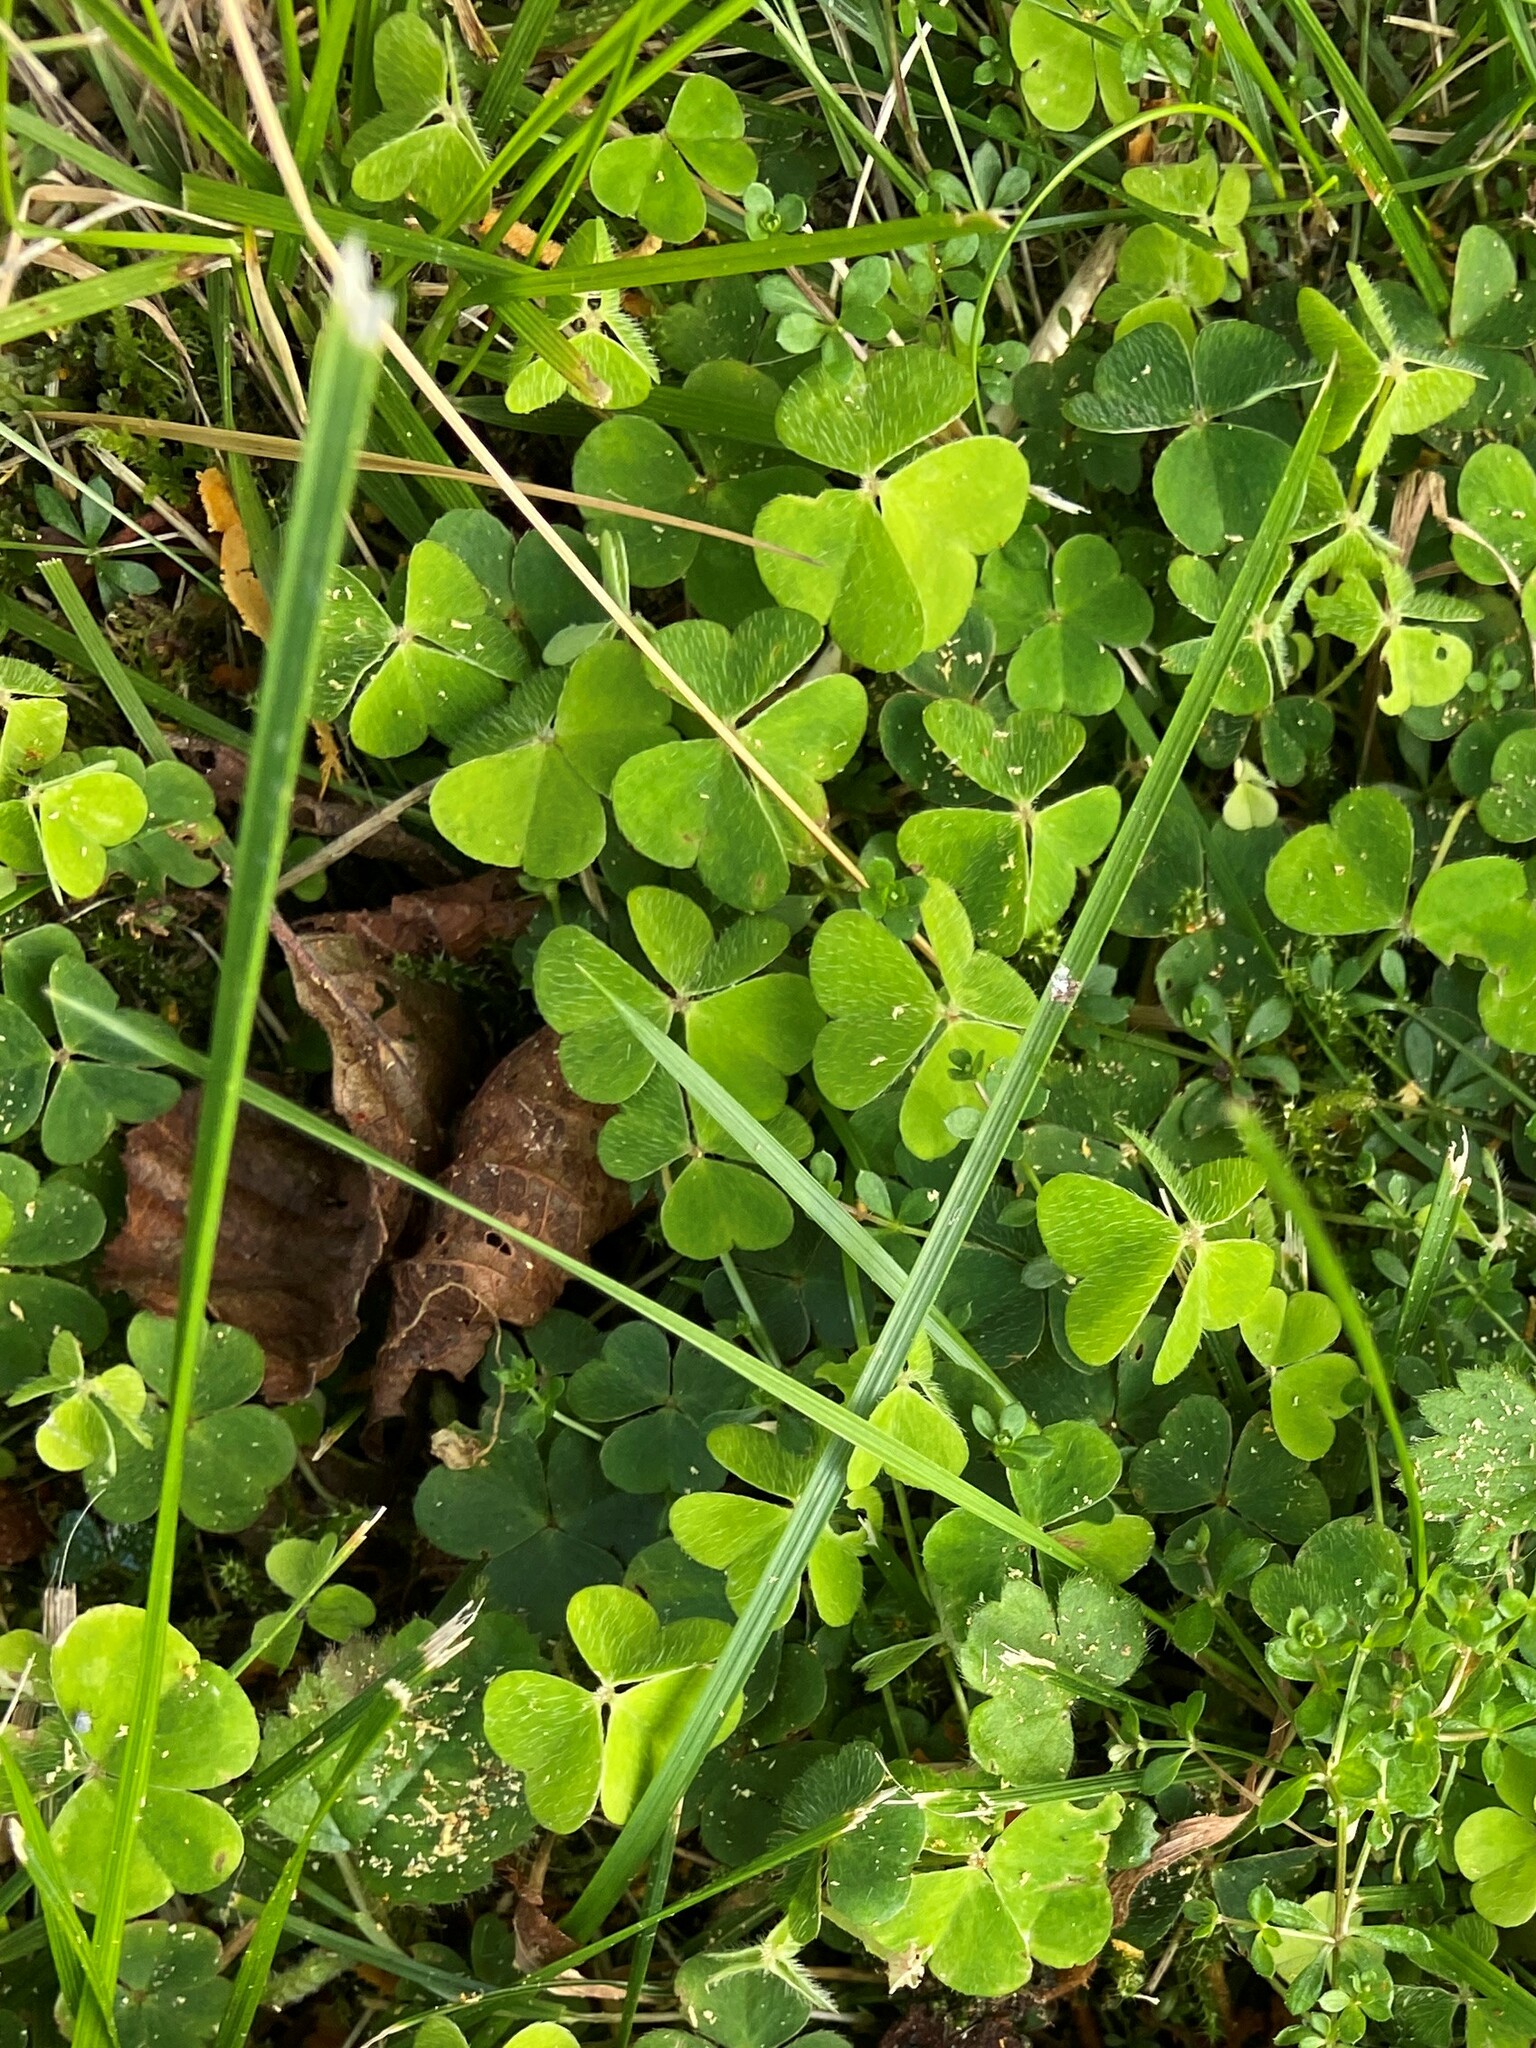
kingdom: Plantae
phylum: Tracheophyta
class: Magnoliopsida
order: Oxalidales
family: Oxalidaceae
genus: Oxalis
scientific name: Oxalis acetosella
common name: Wood-sorrel
